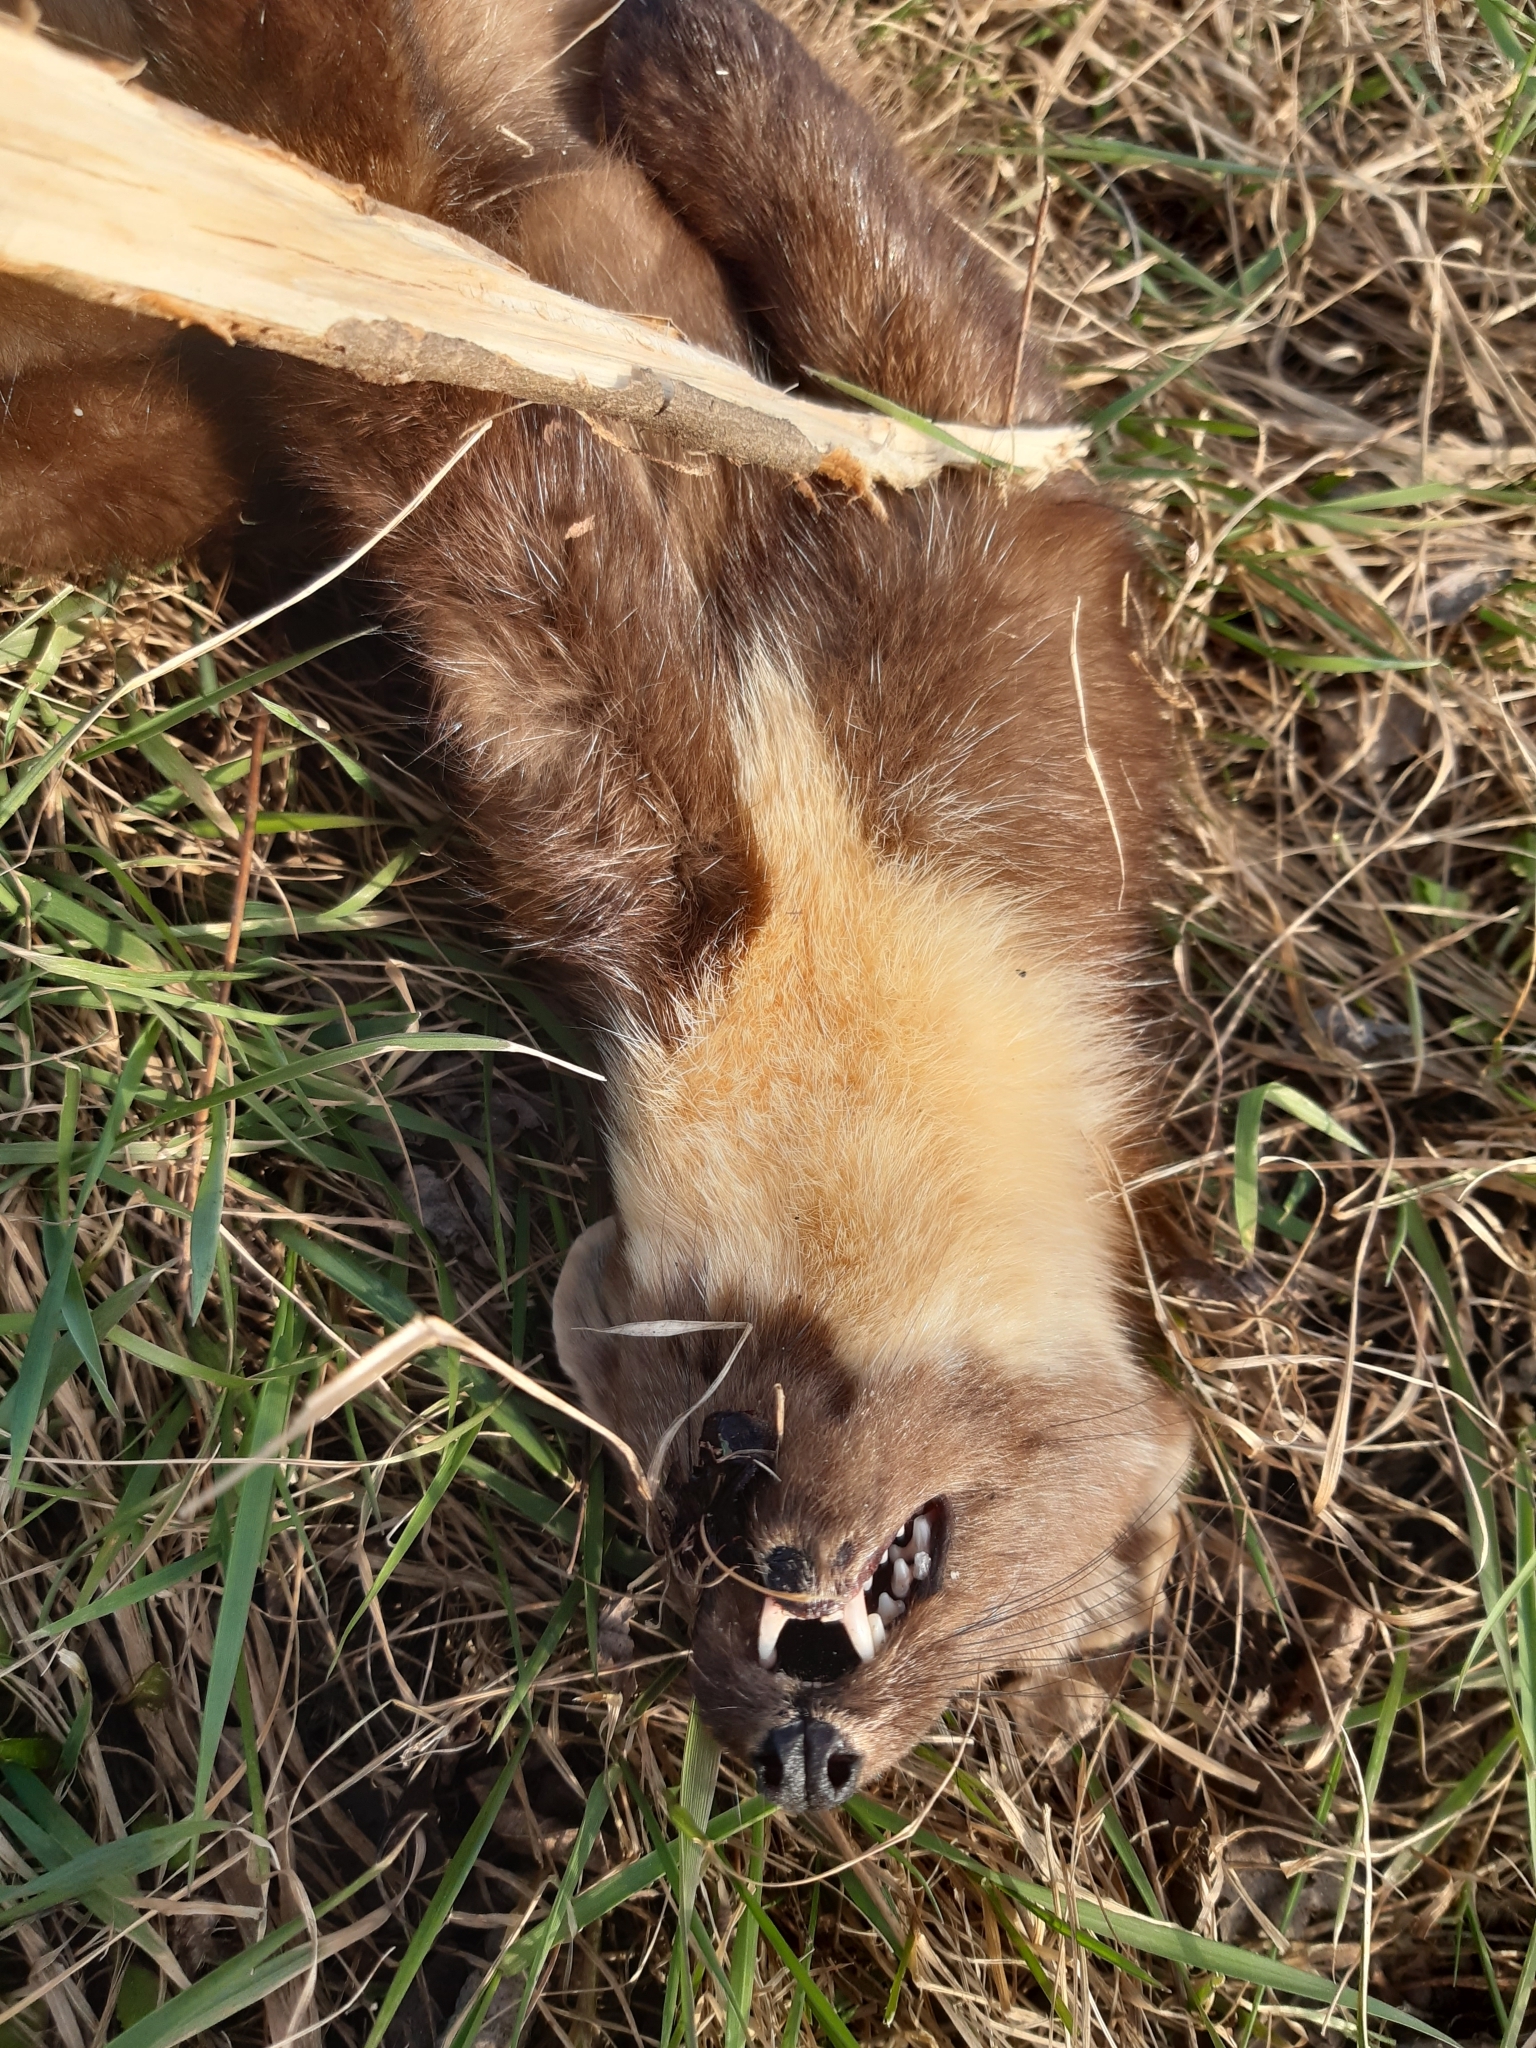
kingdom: Animalia
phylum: Chordata
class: Mammalia
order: Carnivora
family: Mustelidae
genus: Martes
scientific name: Martes martes
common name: European pine marten
